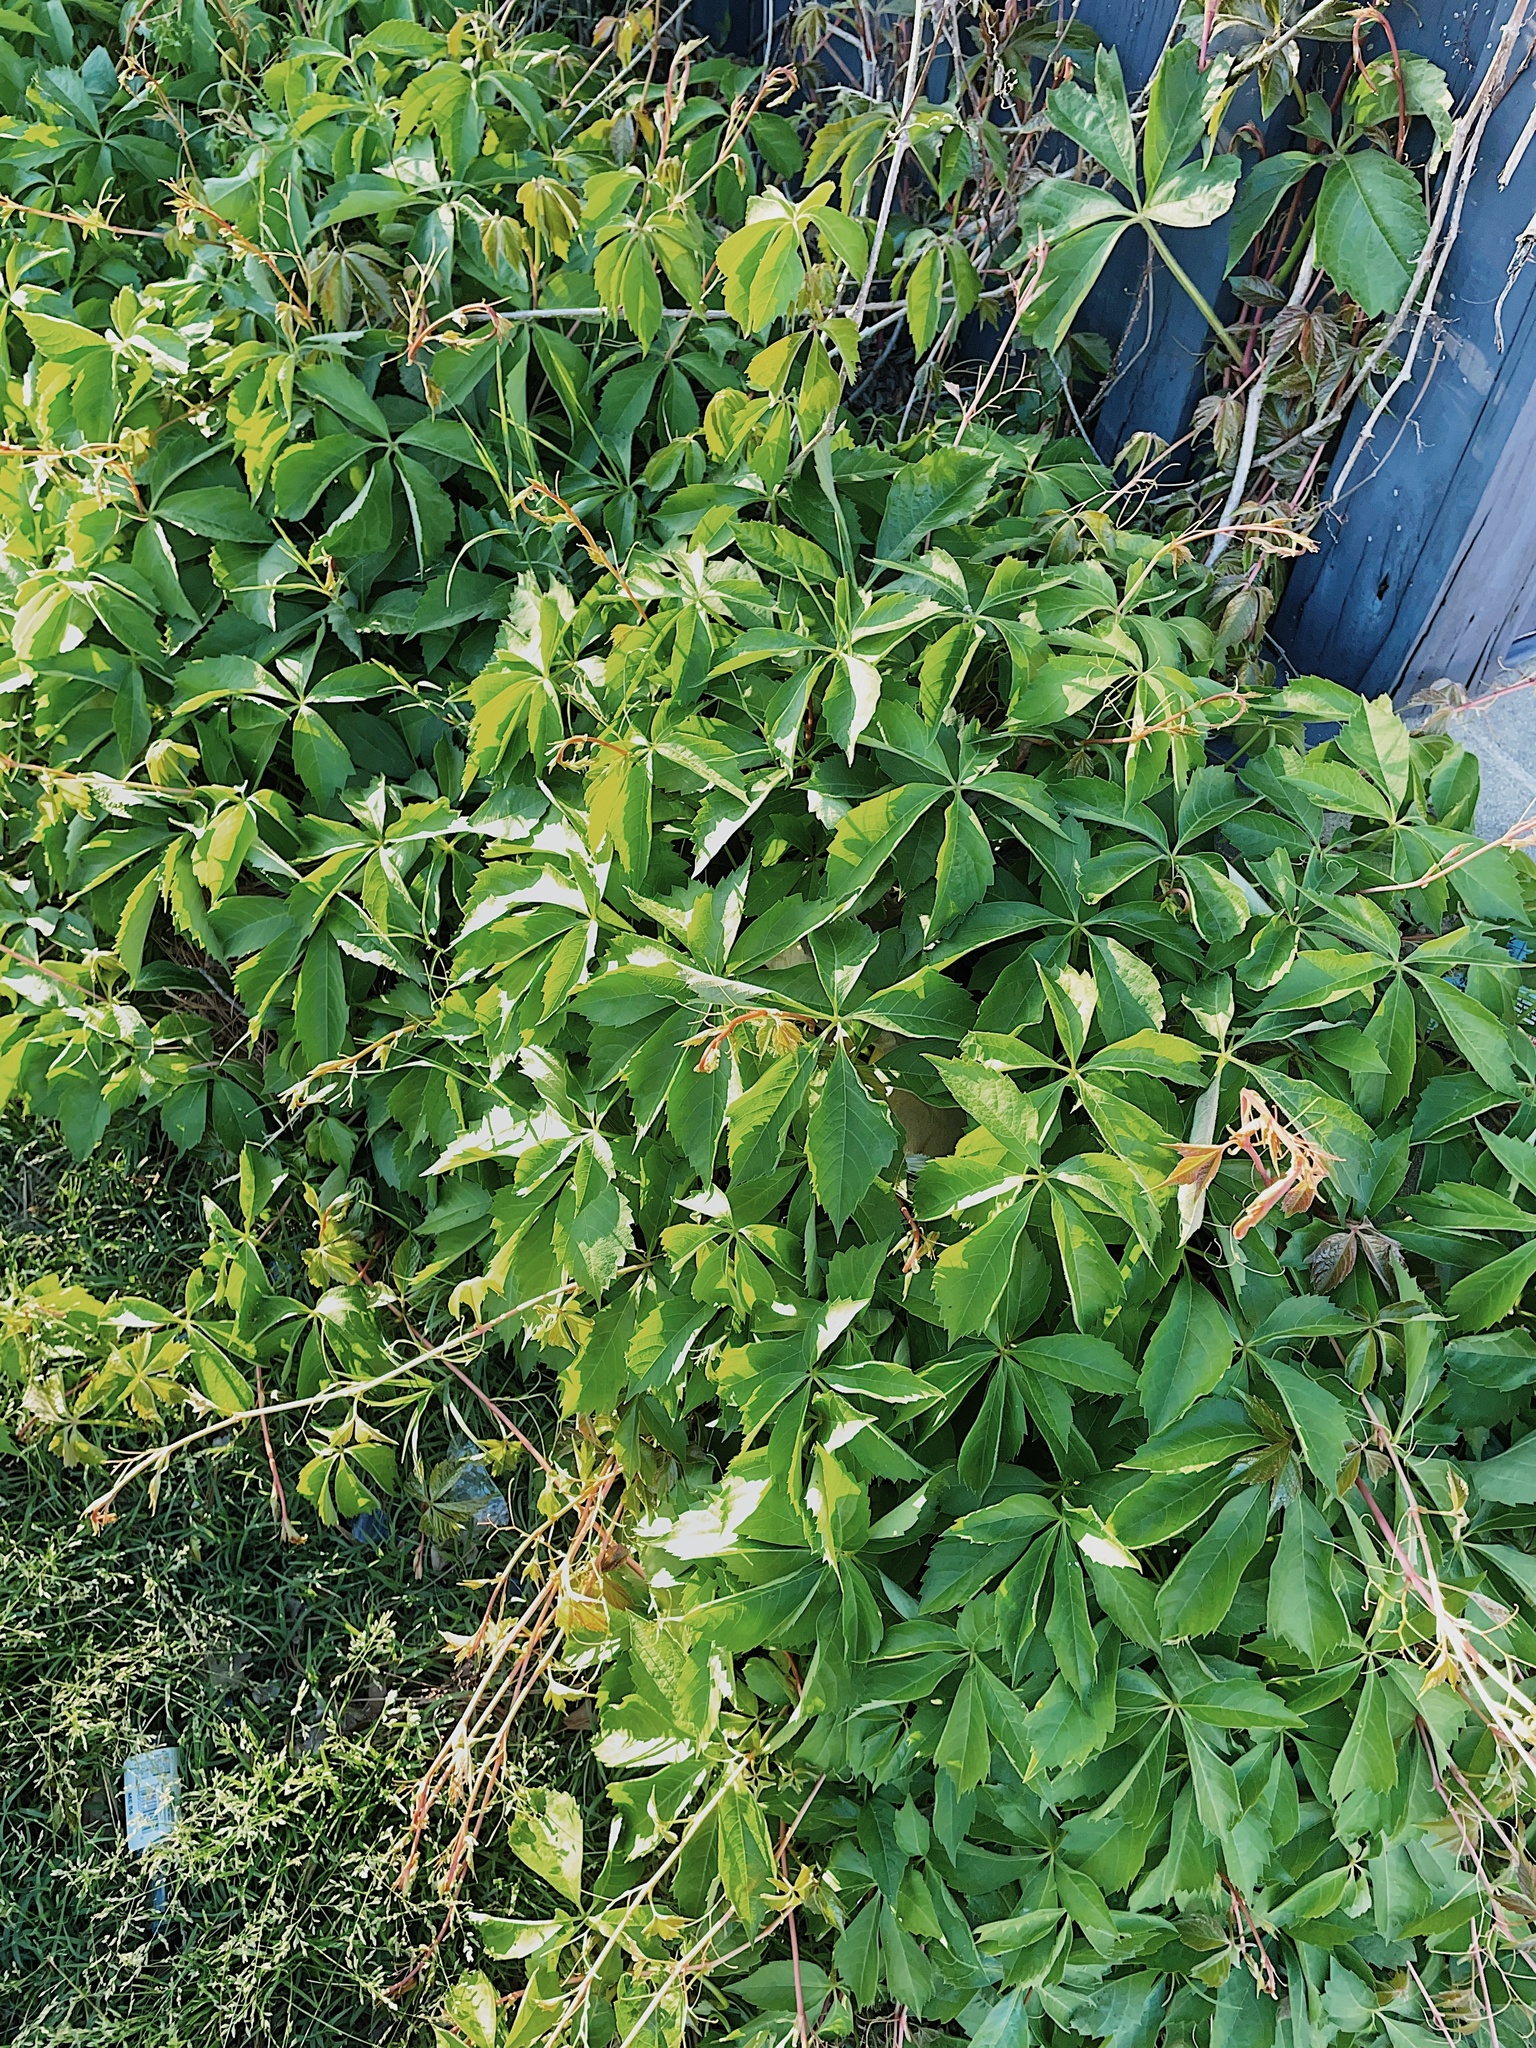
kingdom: Plantae
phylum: Tracheophyta
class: Magnoliopsida
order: Vitales
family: Vitaceae
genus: Parthenocissus
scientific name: Parthenocissus quinquefolia
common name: Virginia-creeper
